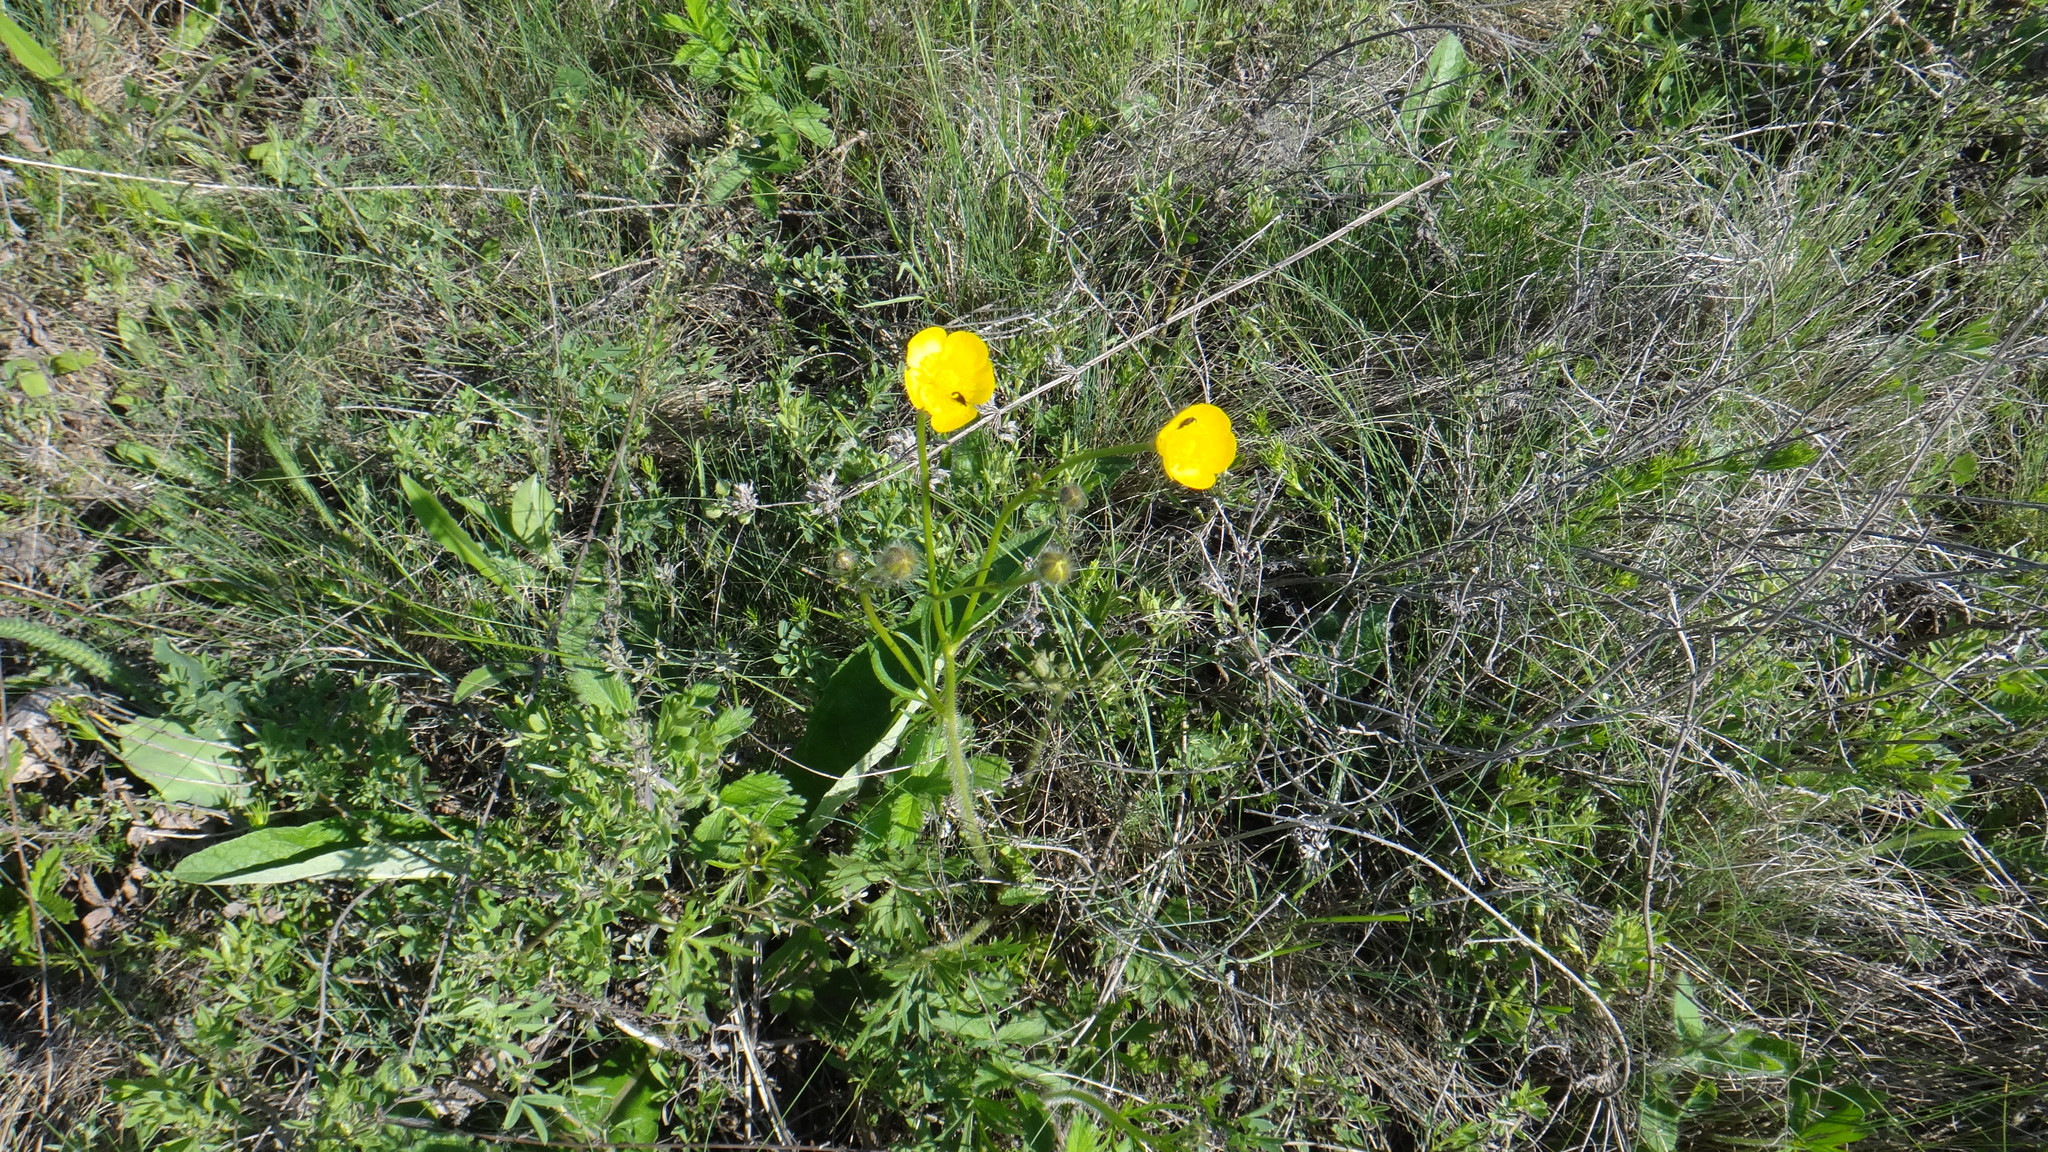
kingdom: Plantae
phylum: Tracheophyta
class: Magnoliopsida
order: Ranunculales
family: Ranunculaceae
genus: Ranunculus
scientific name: Ranunculus polyanthemos
